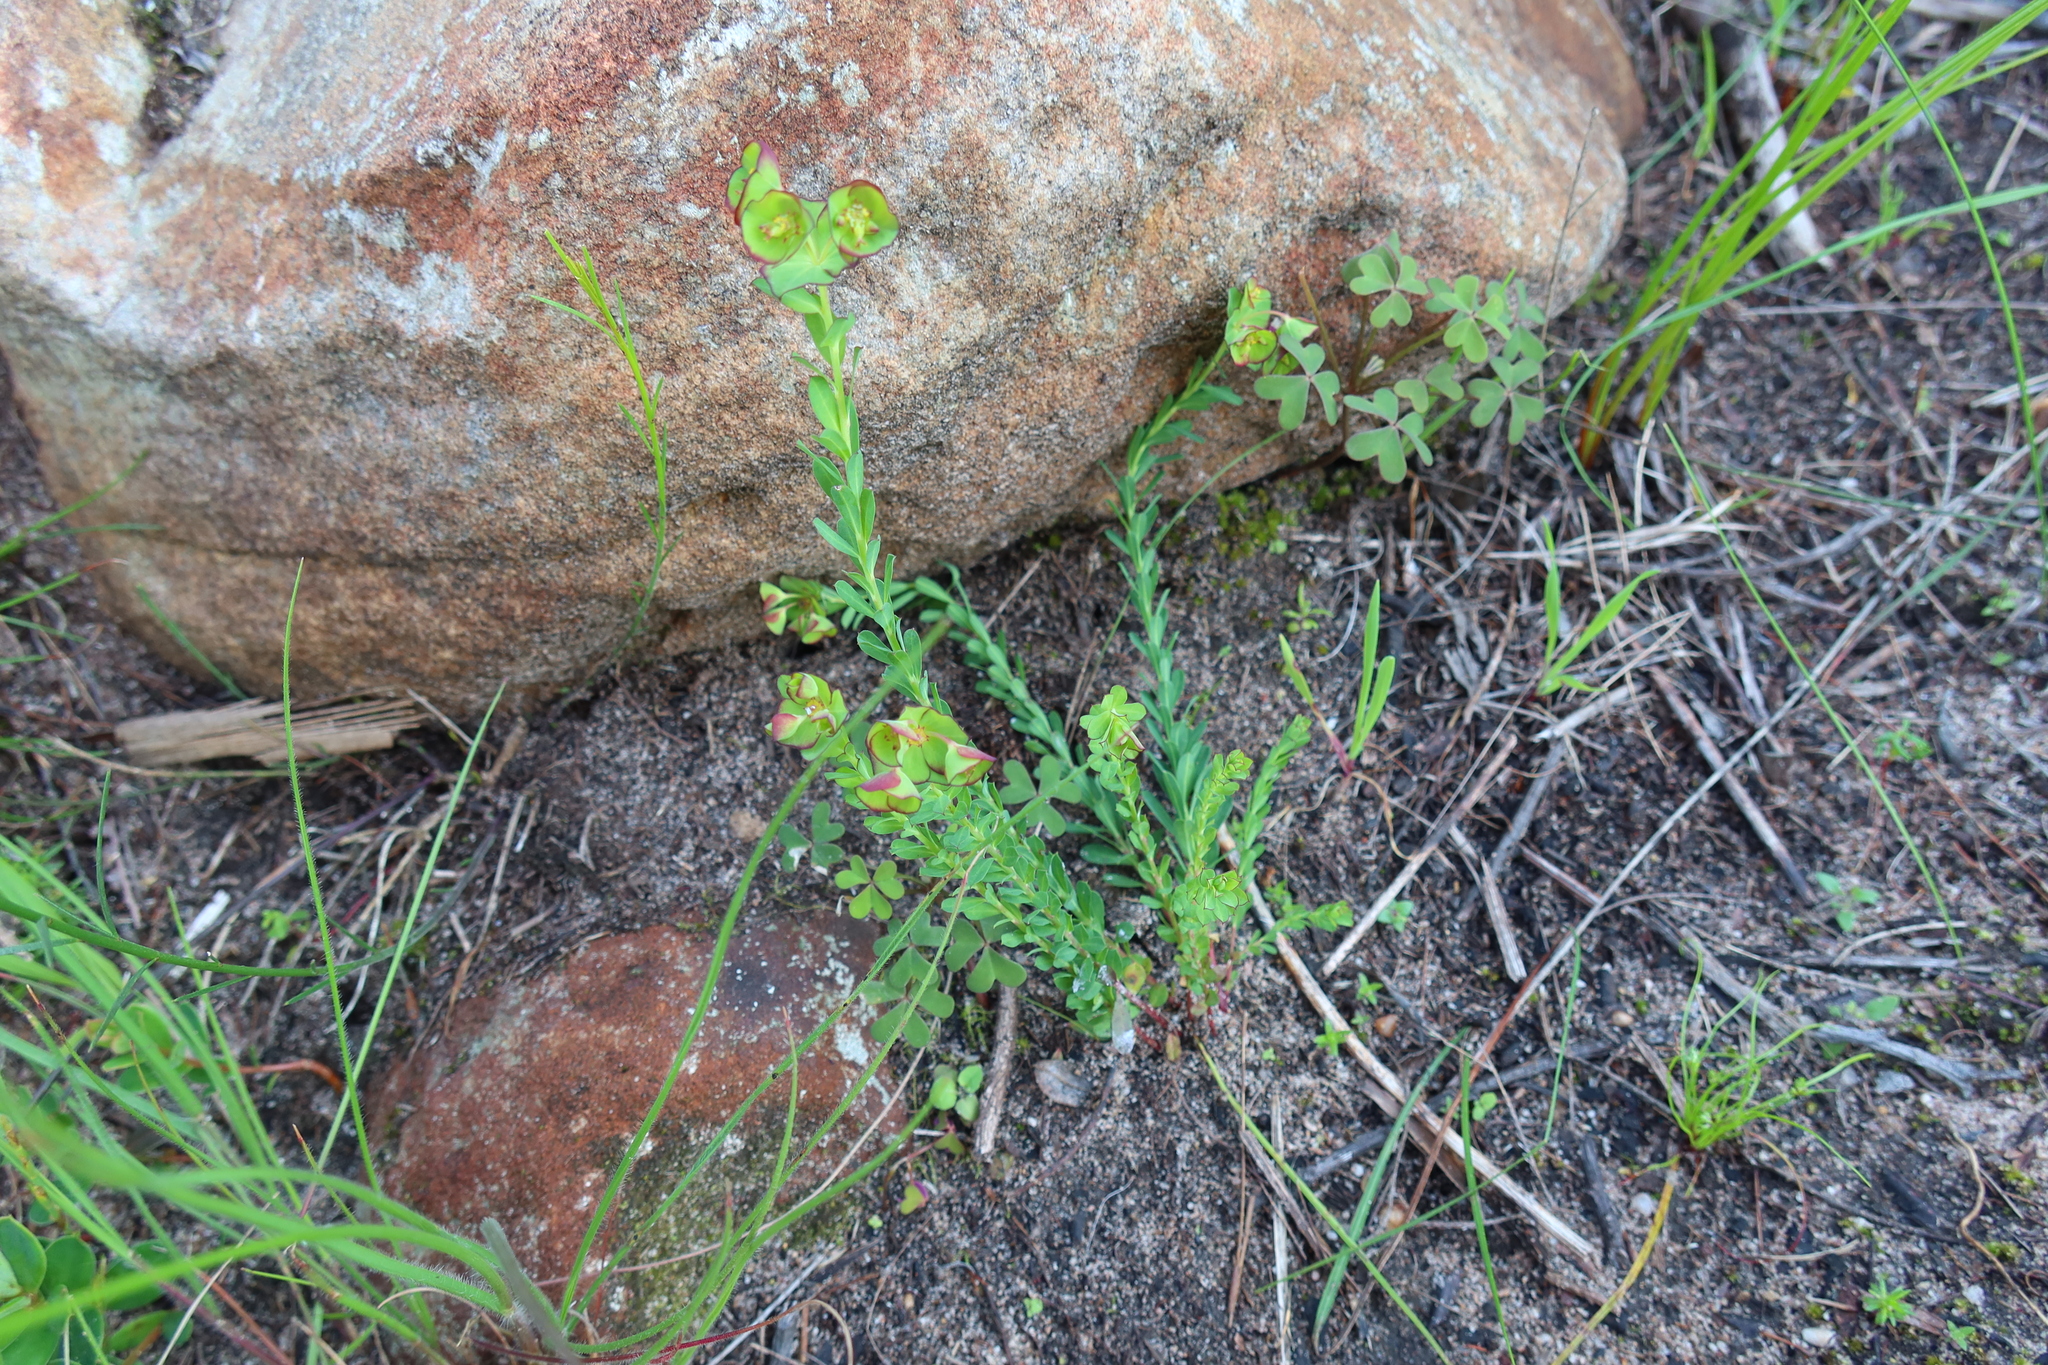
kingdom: Plantae
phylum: Tracheophyta
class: Magnoliopsida
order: Malpighiales
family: Euphorbiaceae
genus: Euphorbia
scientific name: Euphorbia genistoides
